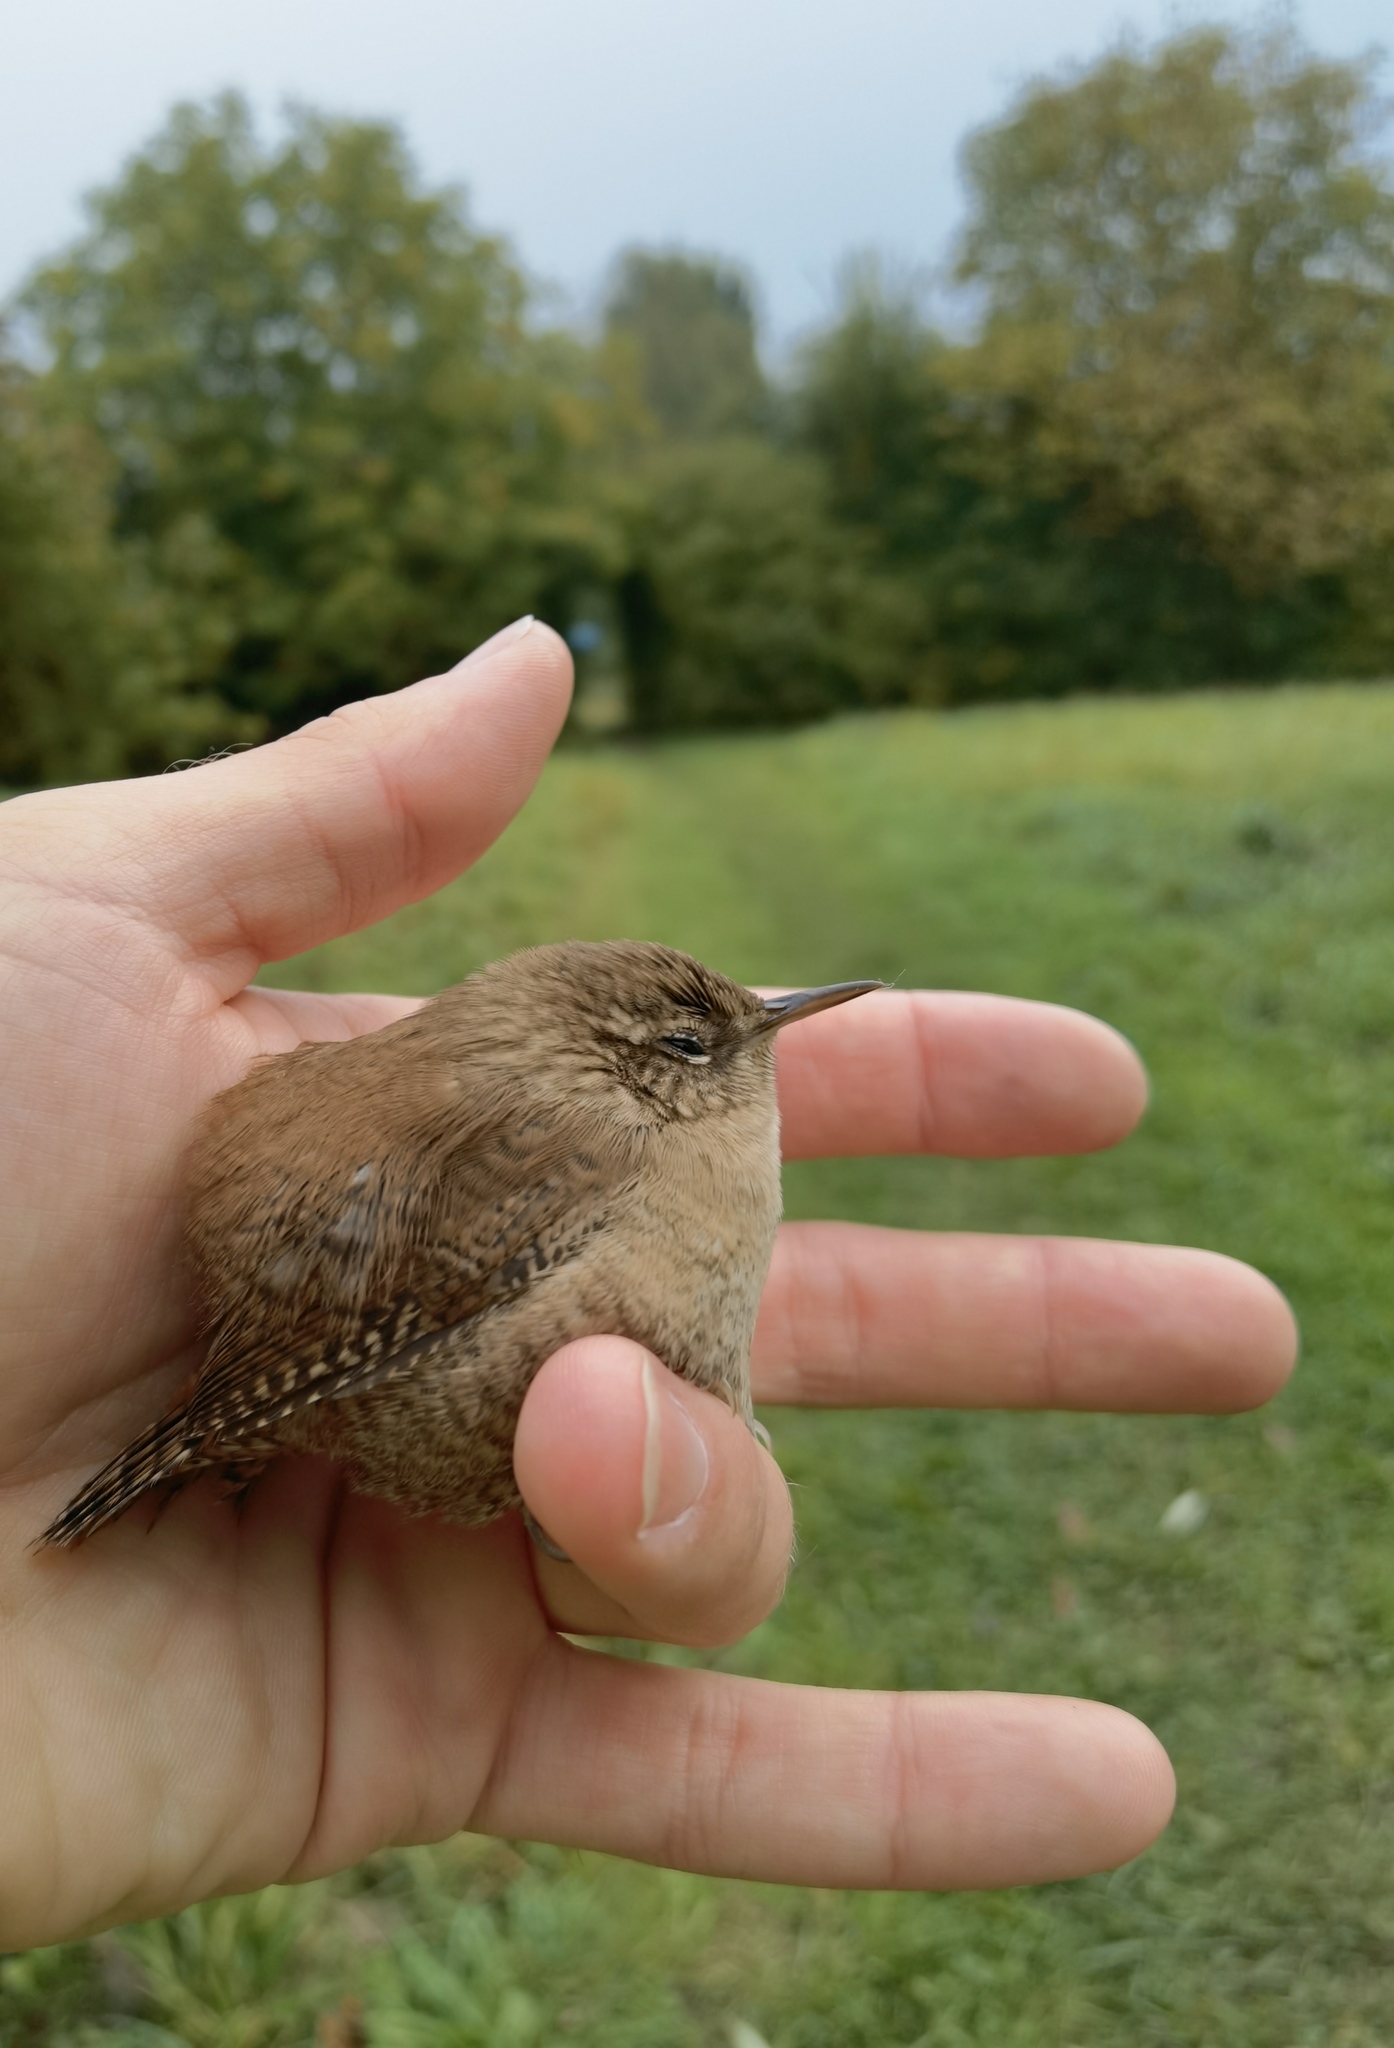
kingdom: Animalia
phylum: Chordata
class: Aves
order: Passeriformes
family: Troglodytidae
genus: Troglodytes
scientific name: Troglodytes troglodytes
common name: Eurasian wren
